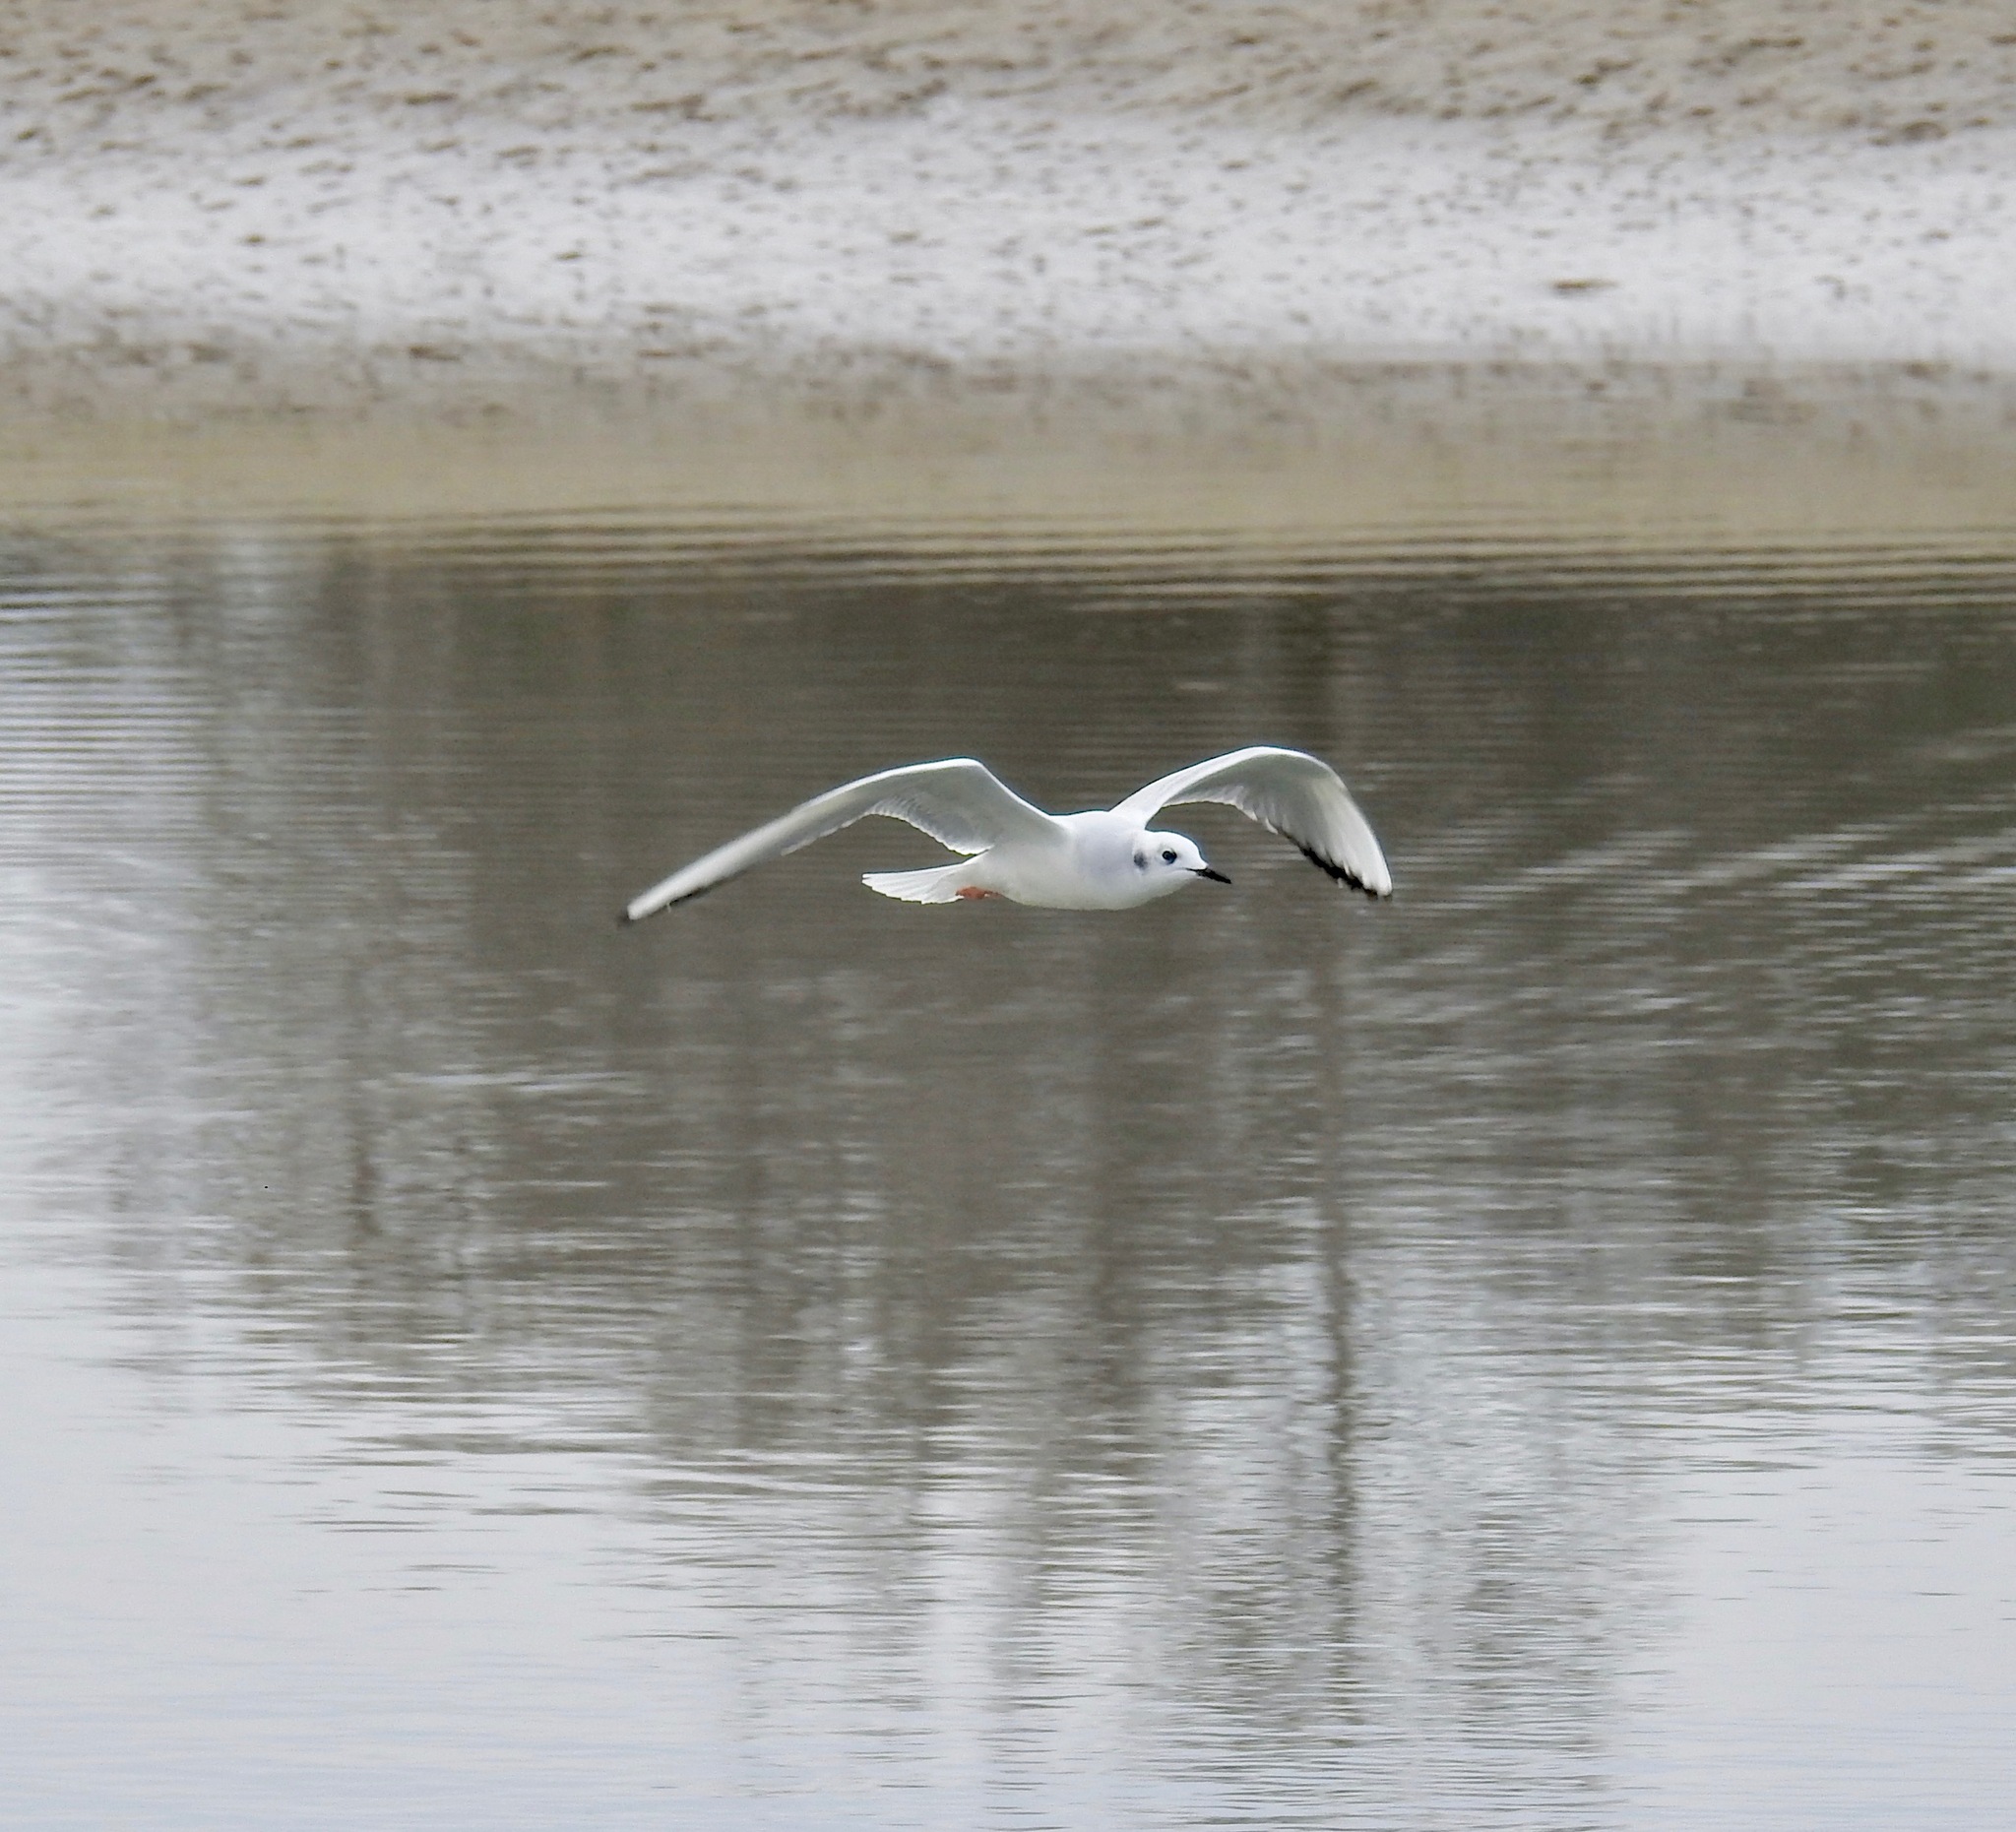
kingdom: Animalia
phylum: Chordata
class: Aves
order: Charadriiformes
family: Laridae
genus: Chroicocephalus
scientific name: Chroicocephalus philadelphia
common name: Bonaparte's gull
